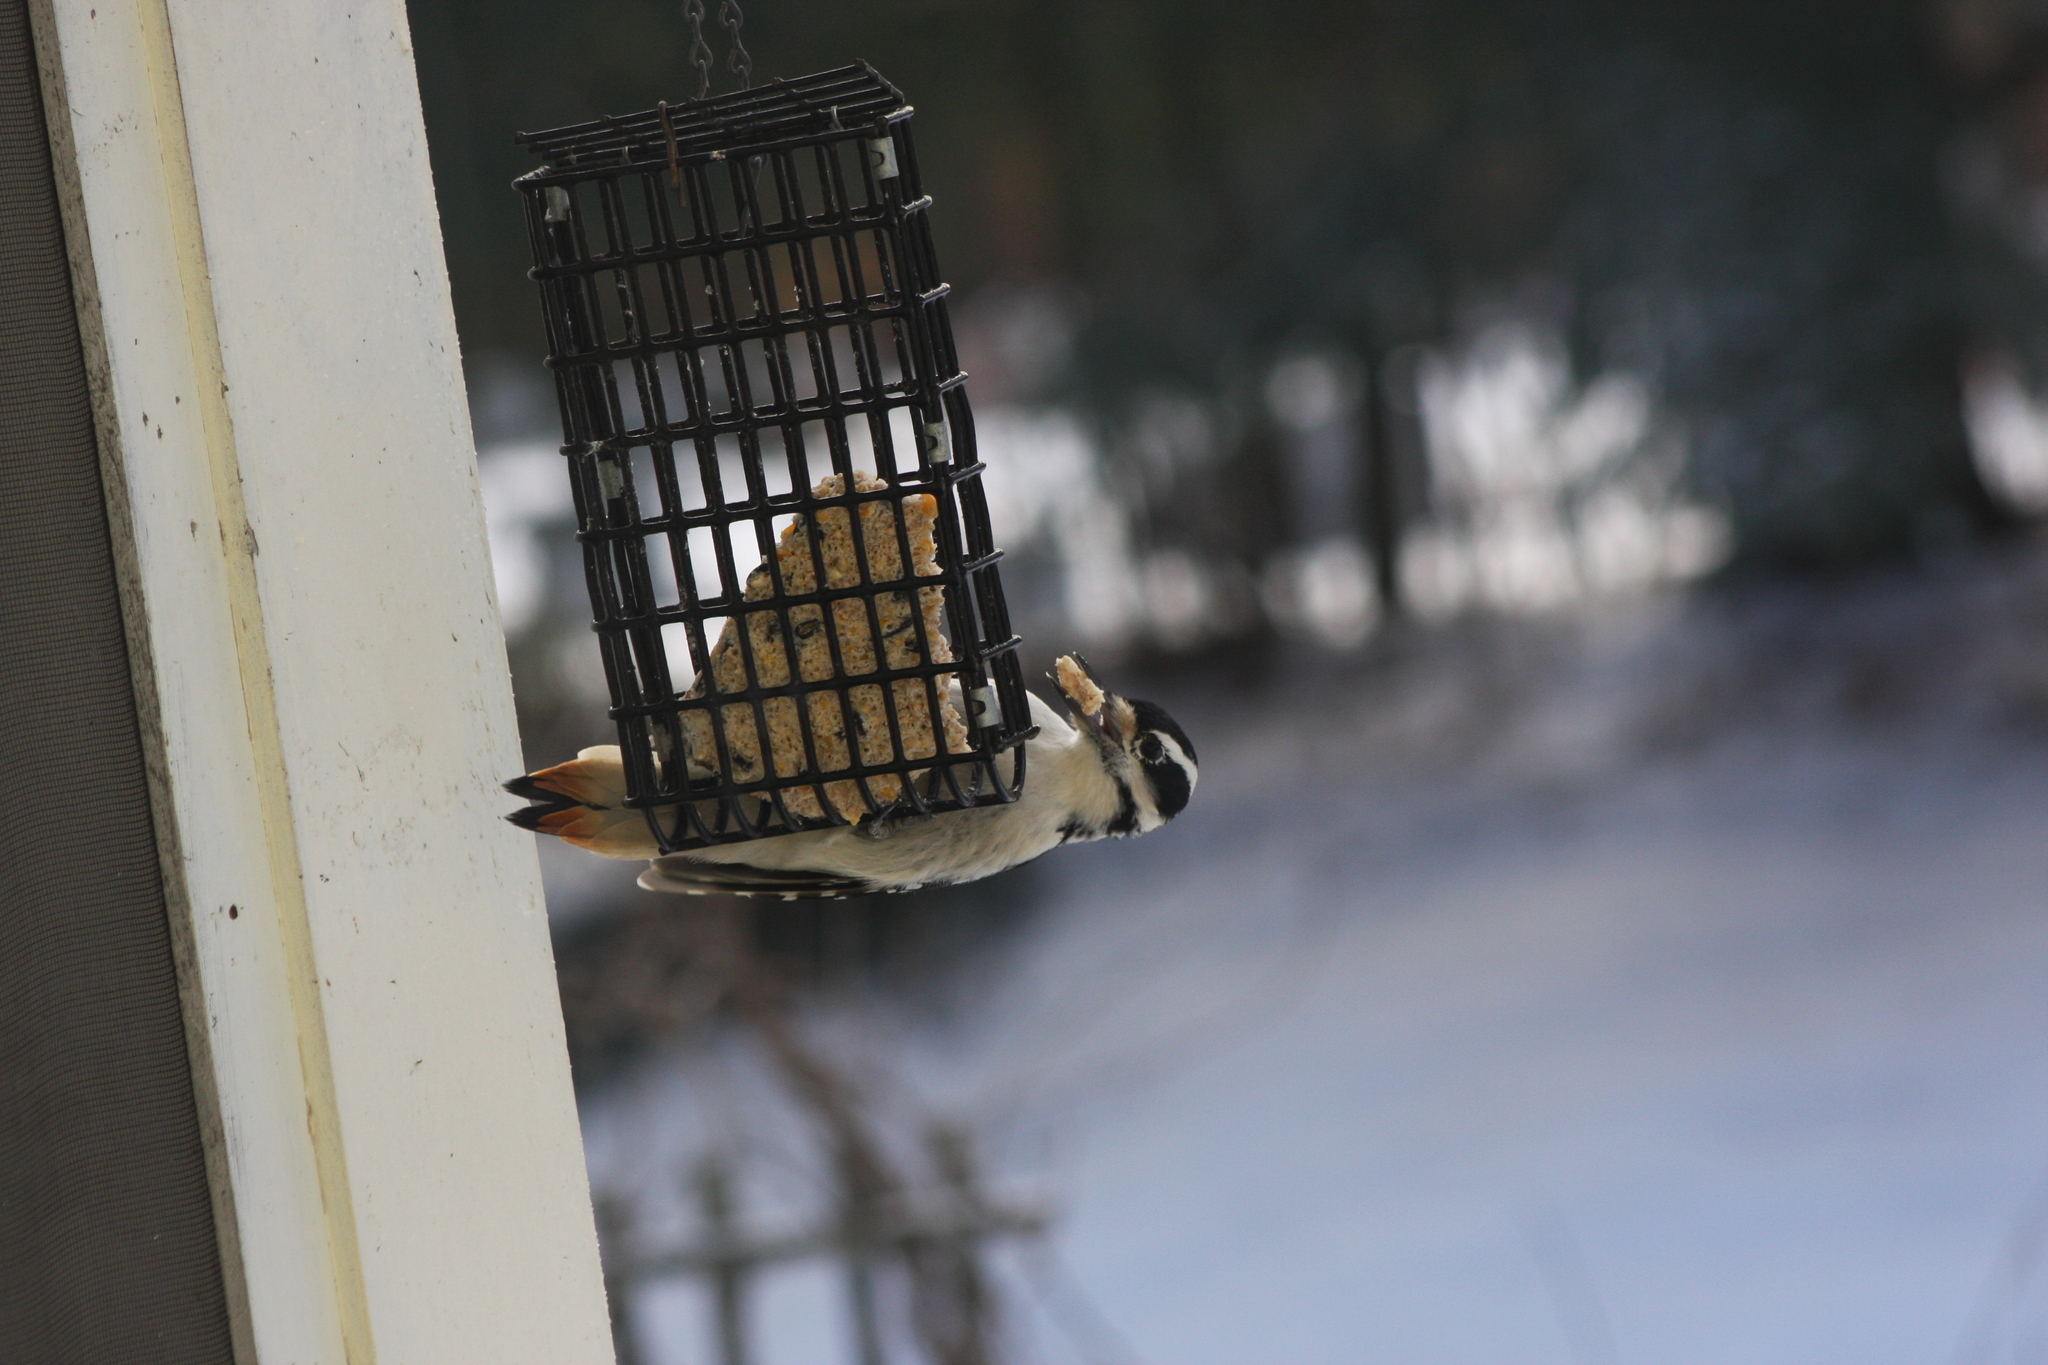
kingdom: Animalia
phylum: Chordata
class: Aves
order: Piciformes
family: Picidae
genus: Leuconotopicus
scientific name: Leuconotopicus villosus
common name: Hairy woodpecker
